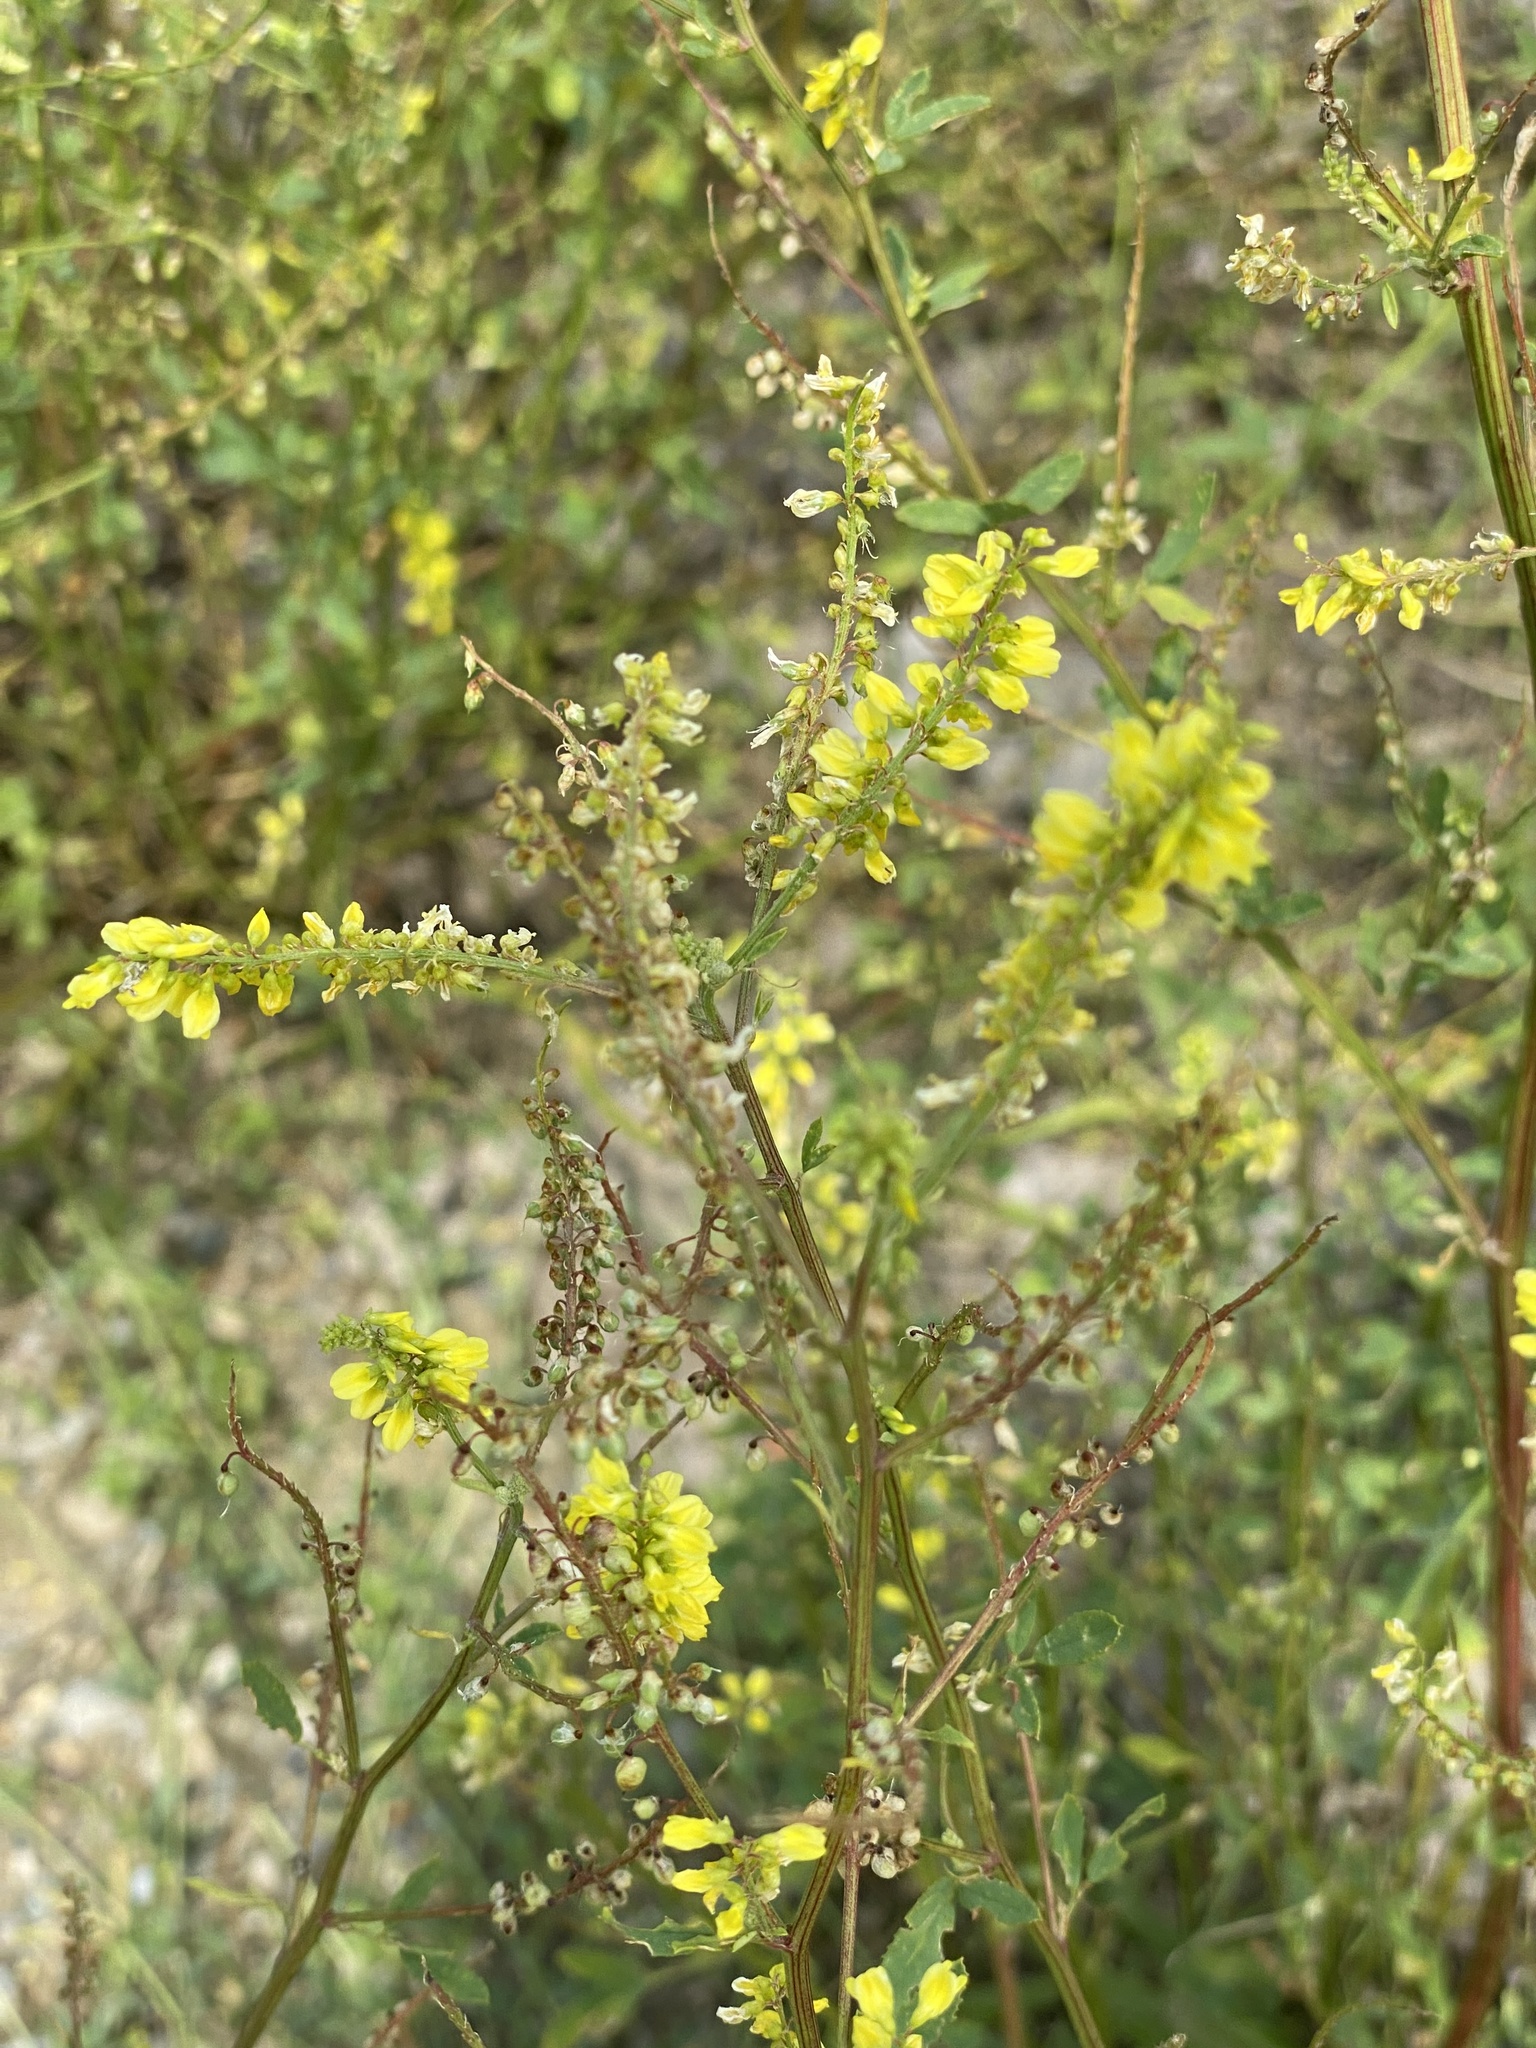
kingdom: Plantae
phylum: Tracheophyta
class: Magnoliopsida
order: Fabales
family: Fabaceae
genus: Melilotus
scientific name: Melilotus officinalis
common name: Sweetclover
